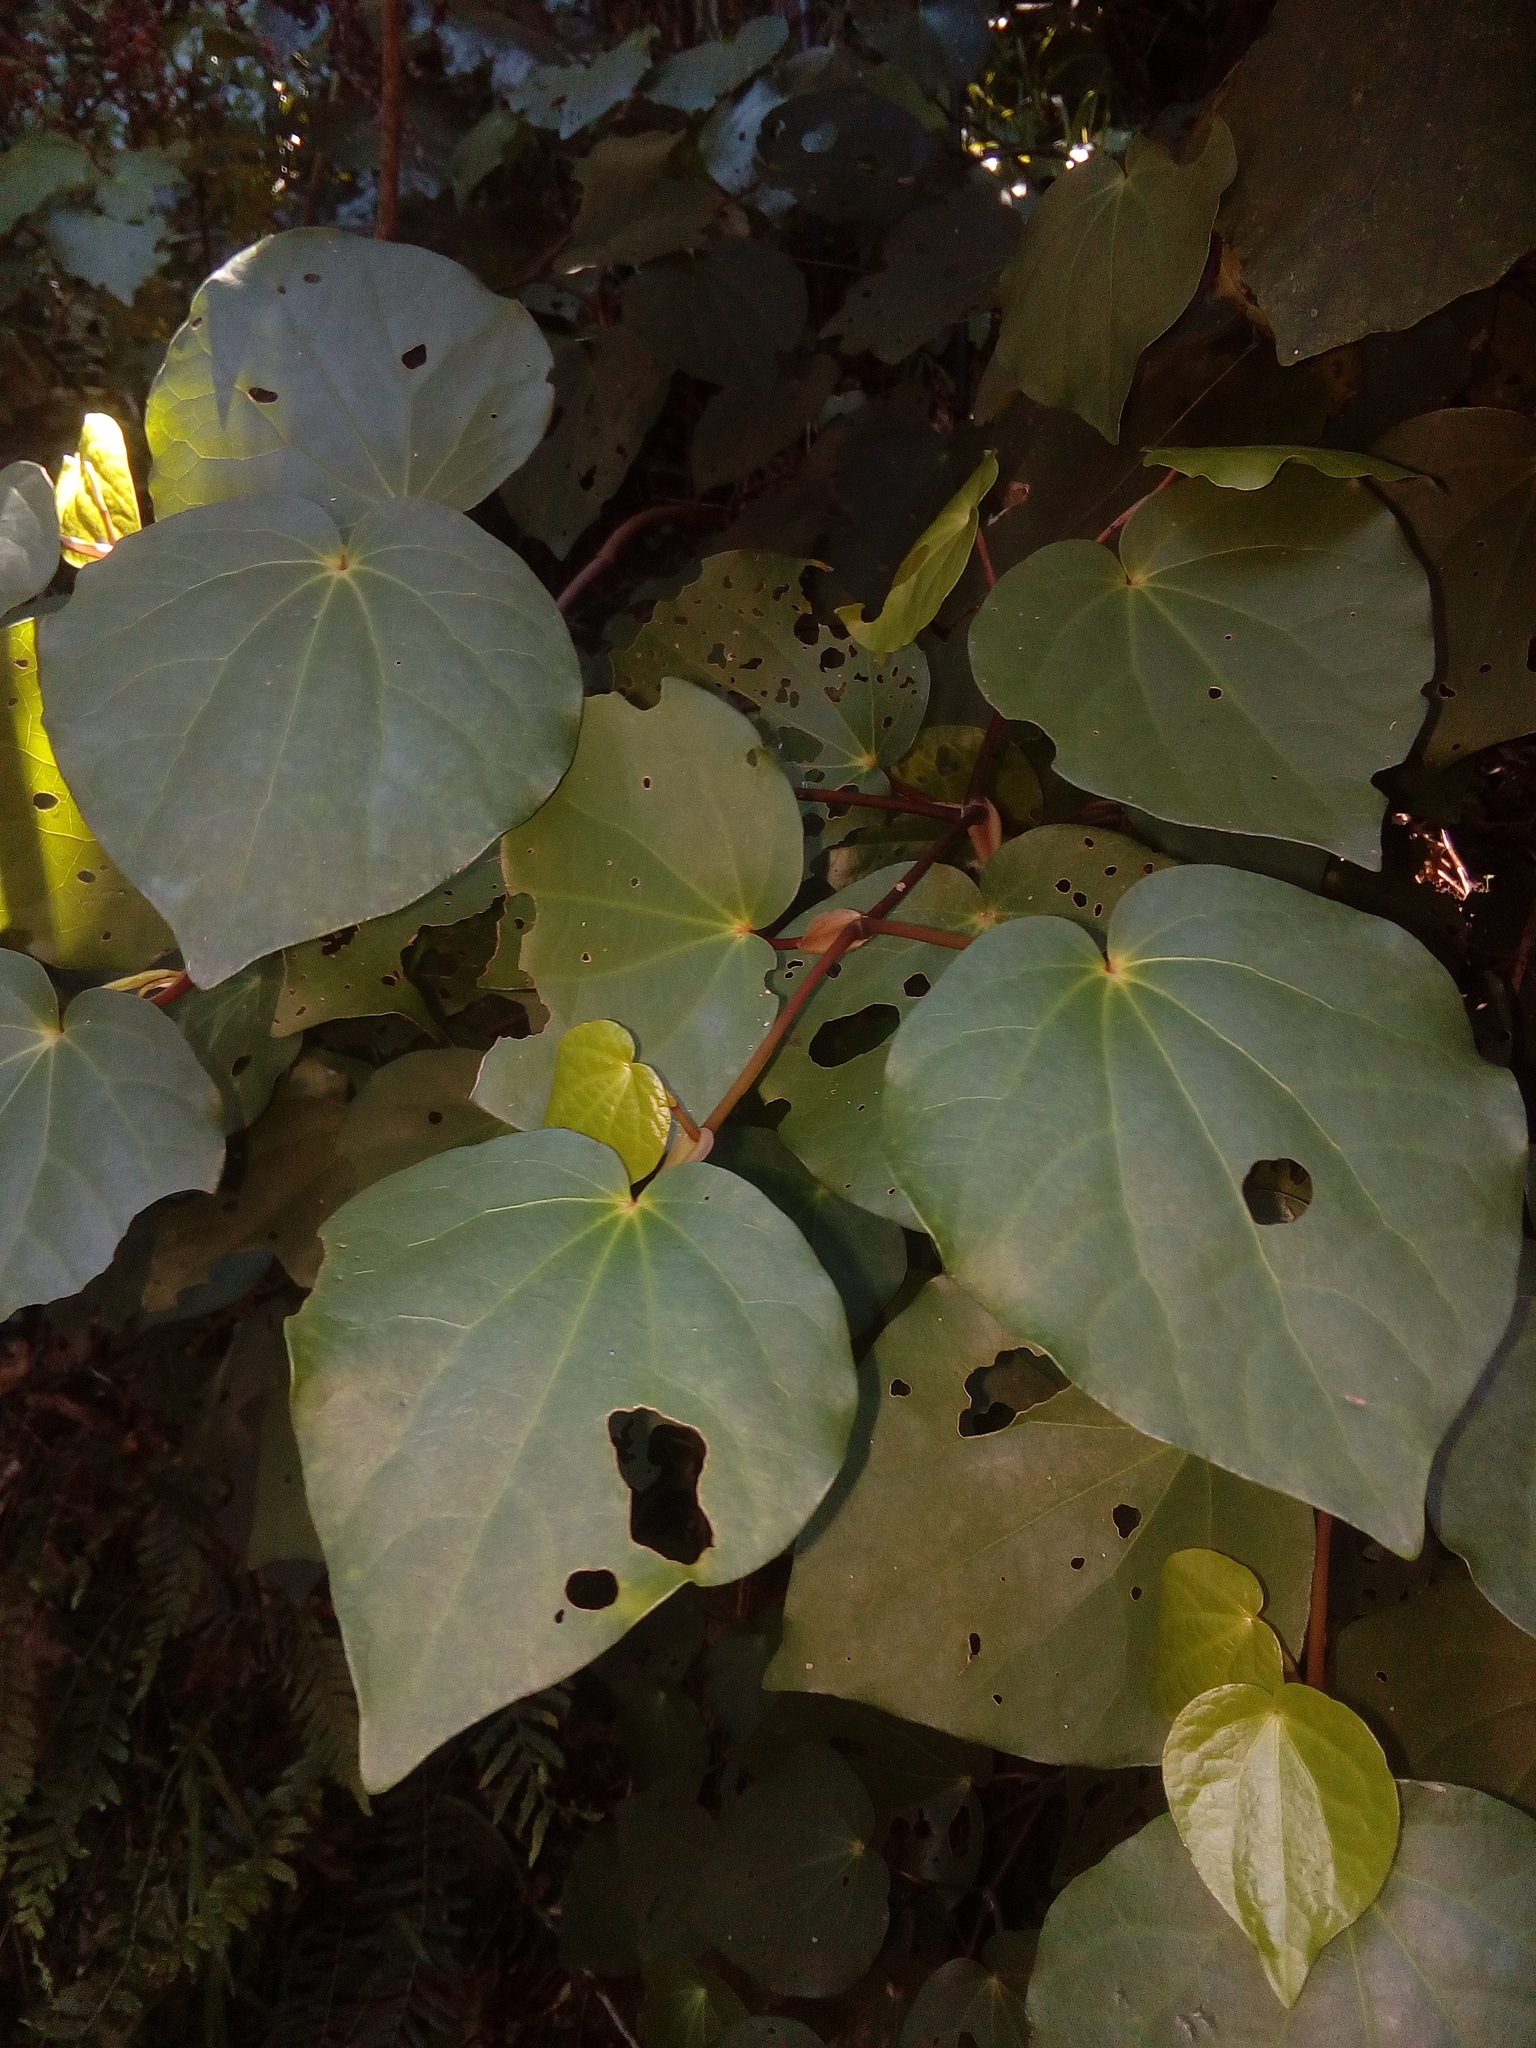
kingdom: Plantae
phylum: Tracheophyta
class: Magnoliopsida
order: Piperales
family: Piperaceae
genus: Macropiper
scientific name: Macropiper excelsum
